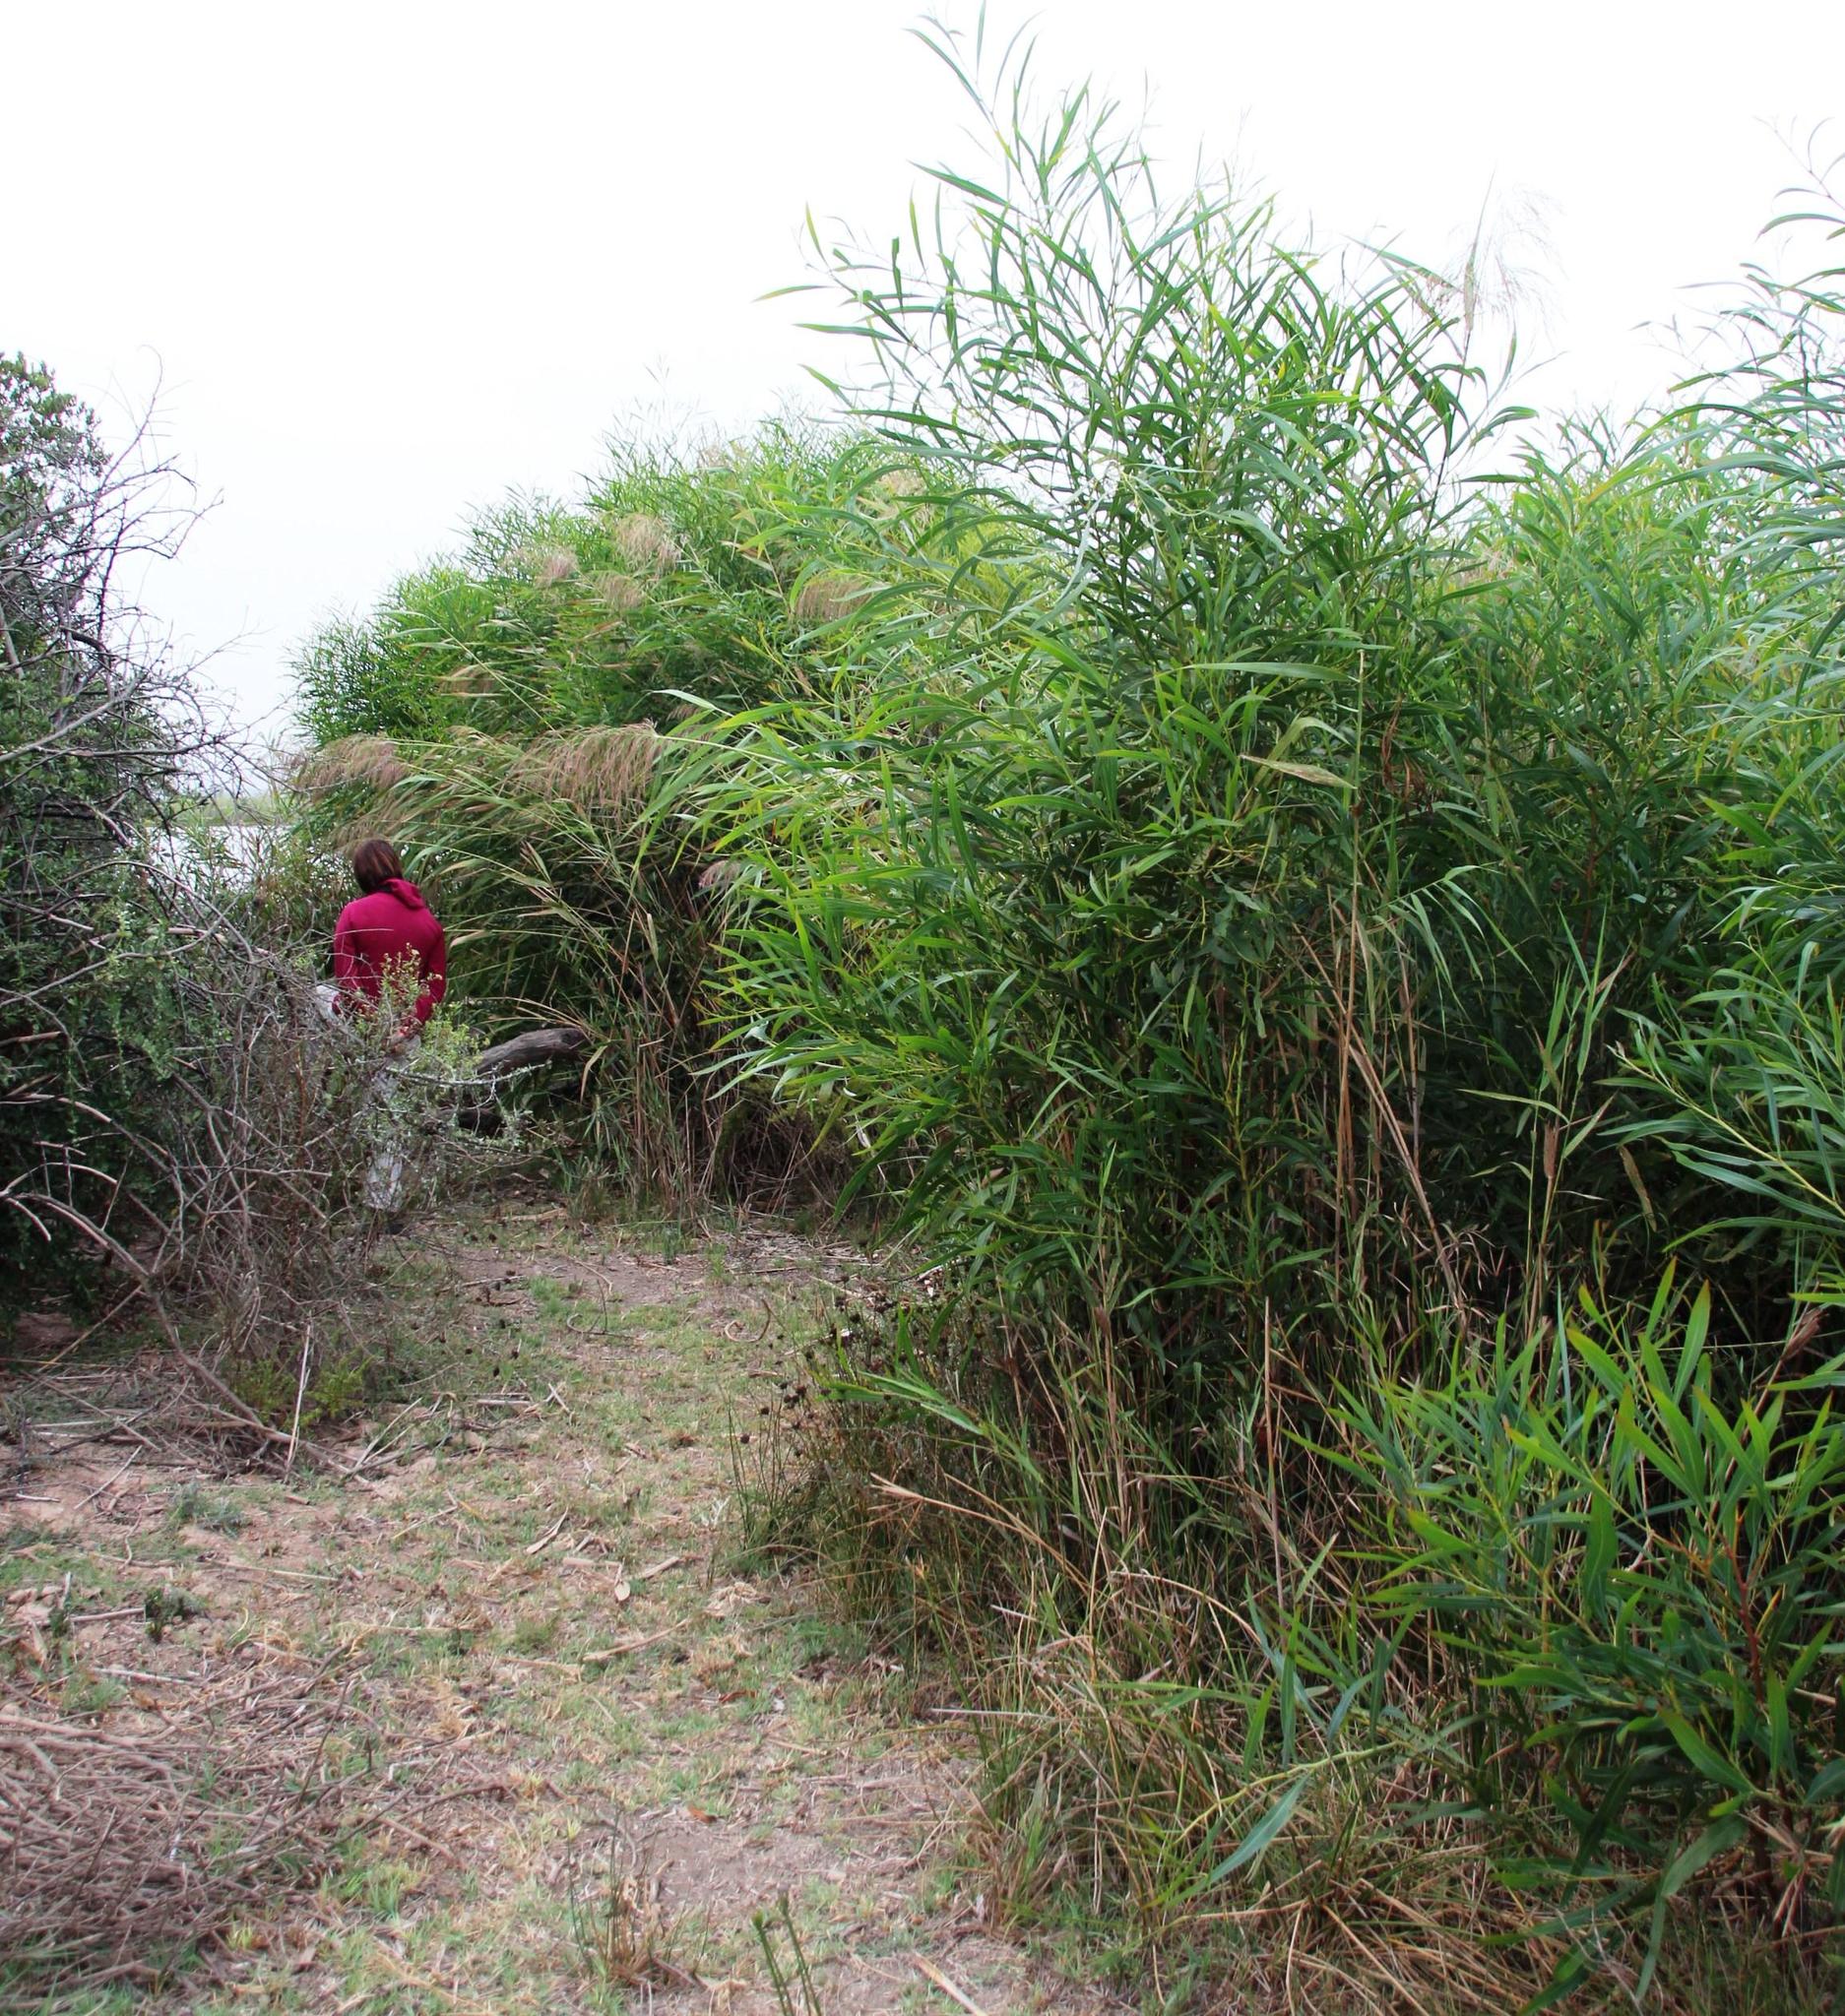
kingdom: Plantae
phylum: Tracheophyta
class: Magnoliopsida
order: Fabales
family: Fabaceae
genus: Acacia
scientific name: Acacia saligna
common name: Orange wattle
